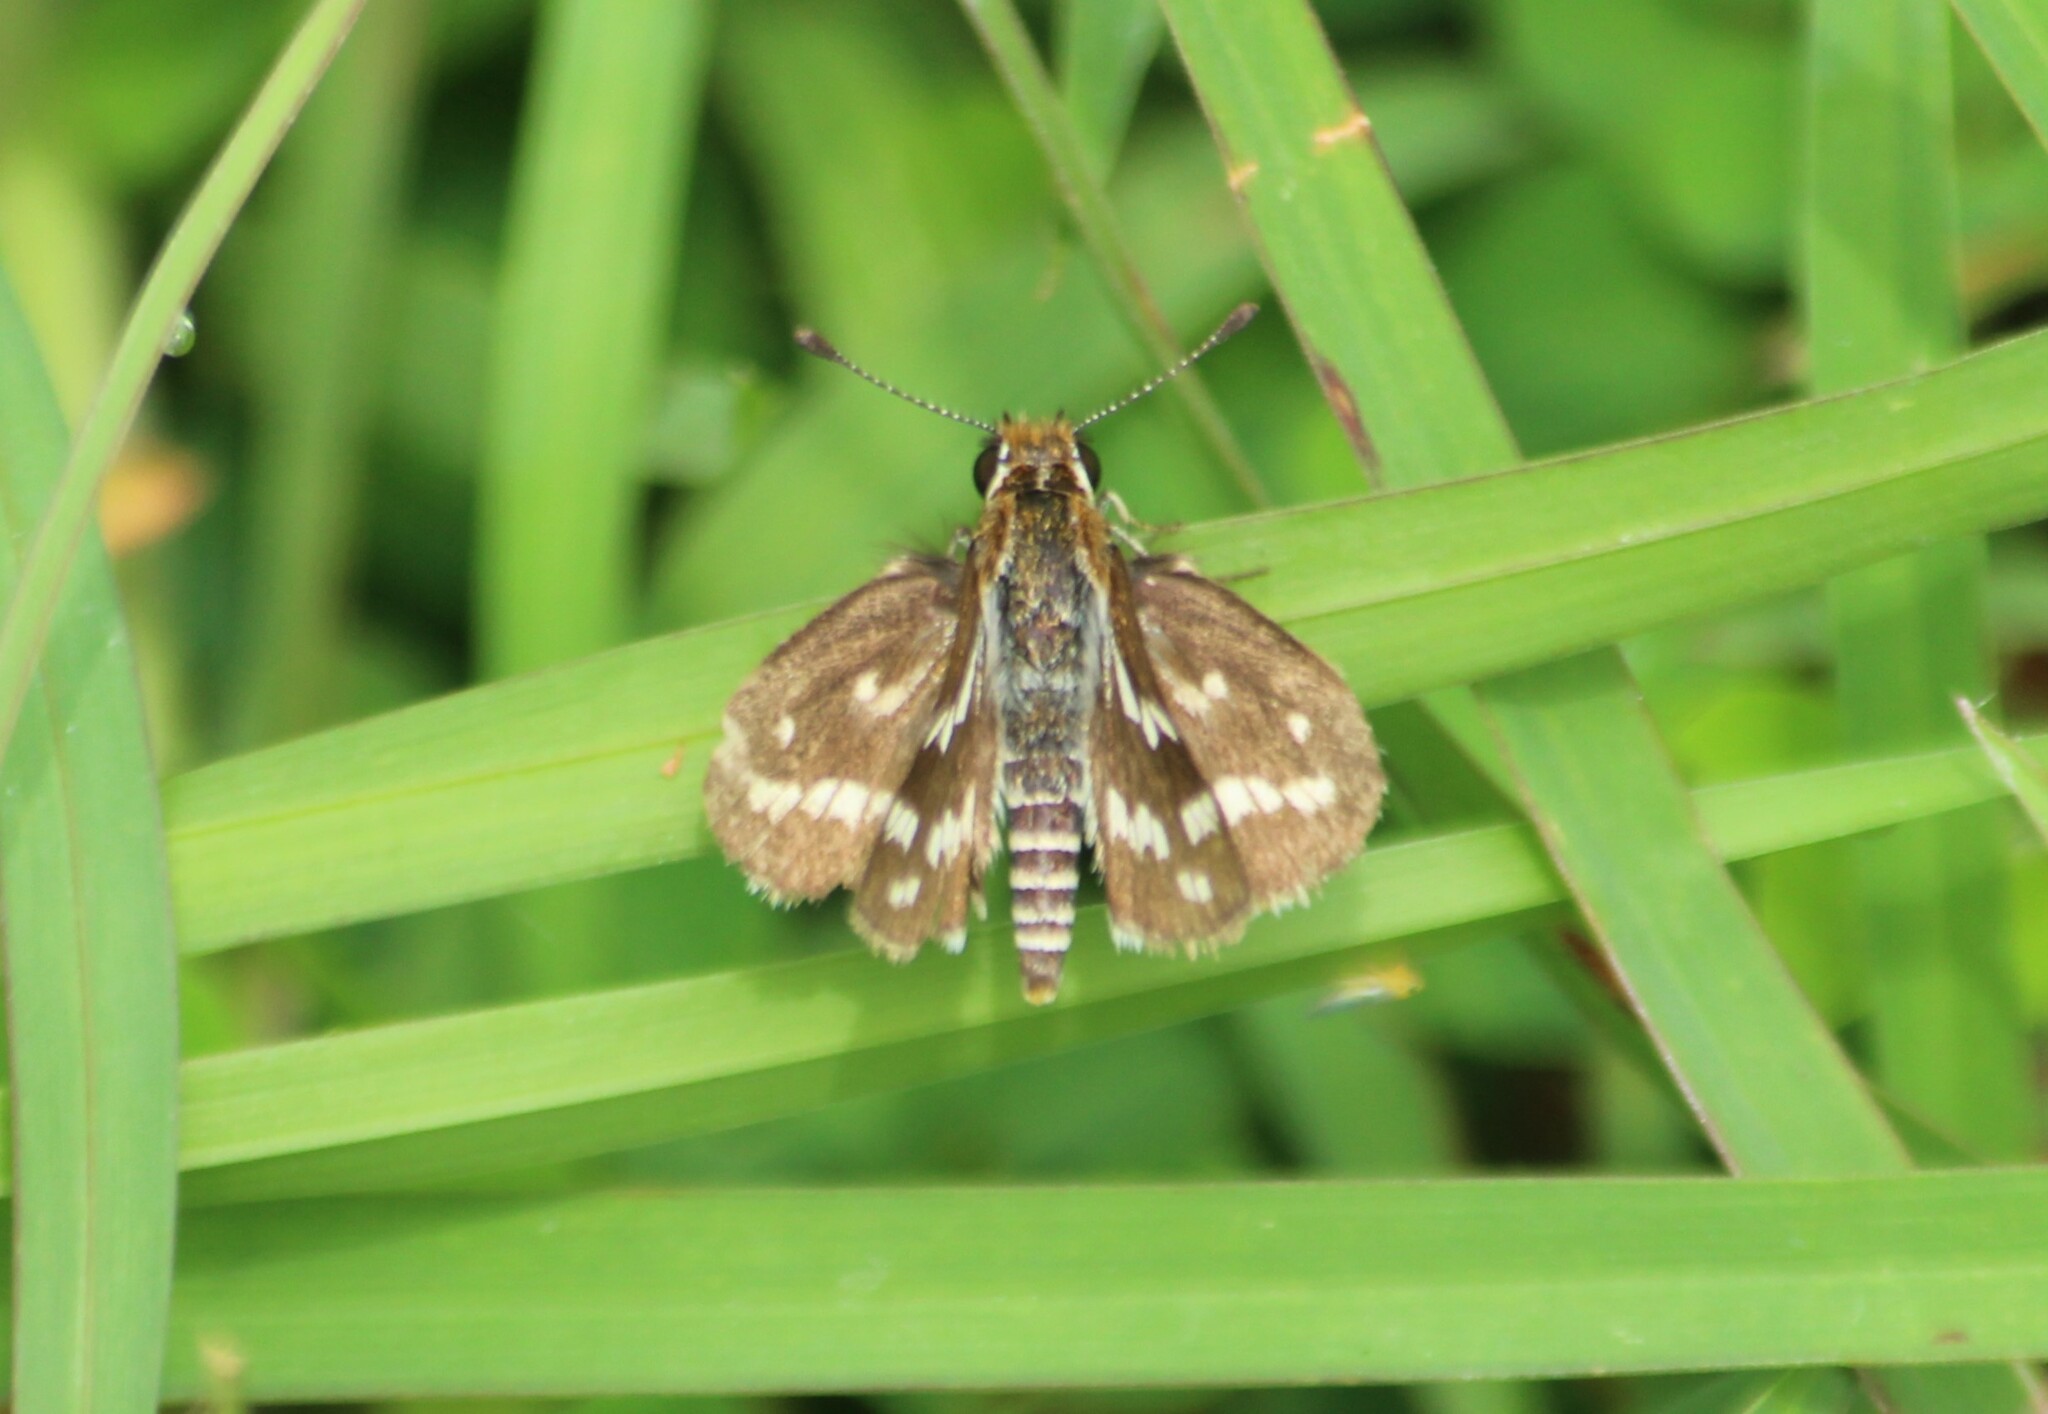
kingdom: Animalia
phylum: Arthropoda
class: Insecta
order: Lepidoptera
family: Hesperiidae
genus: Taractrocera
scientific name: Taractrocera maevius
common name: Common grass-dart
